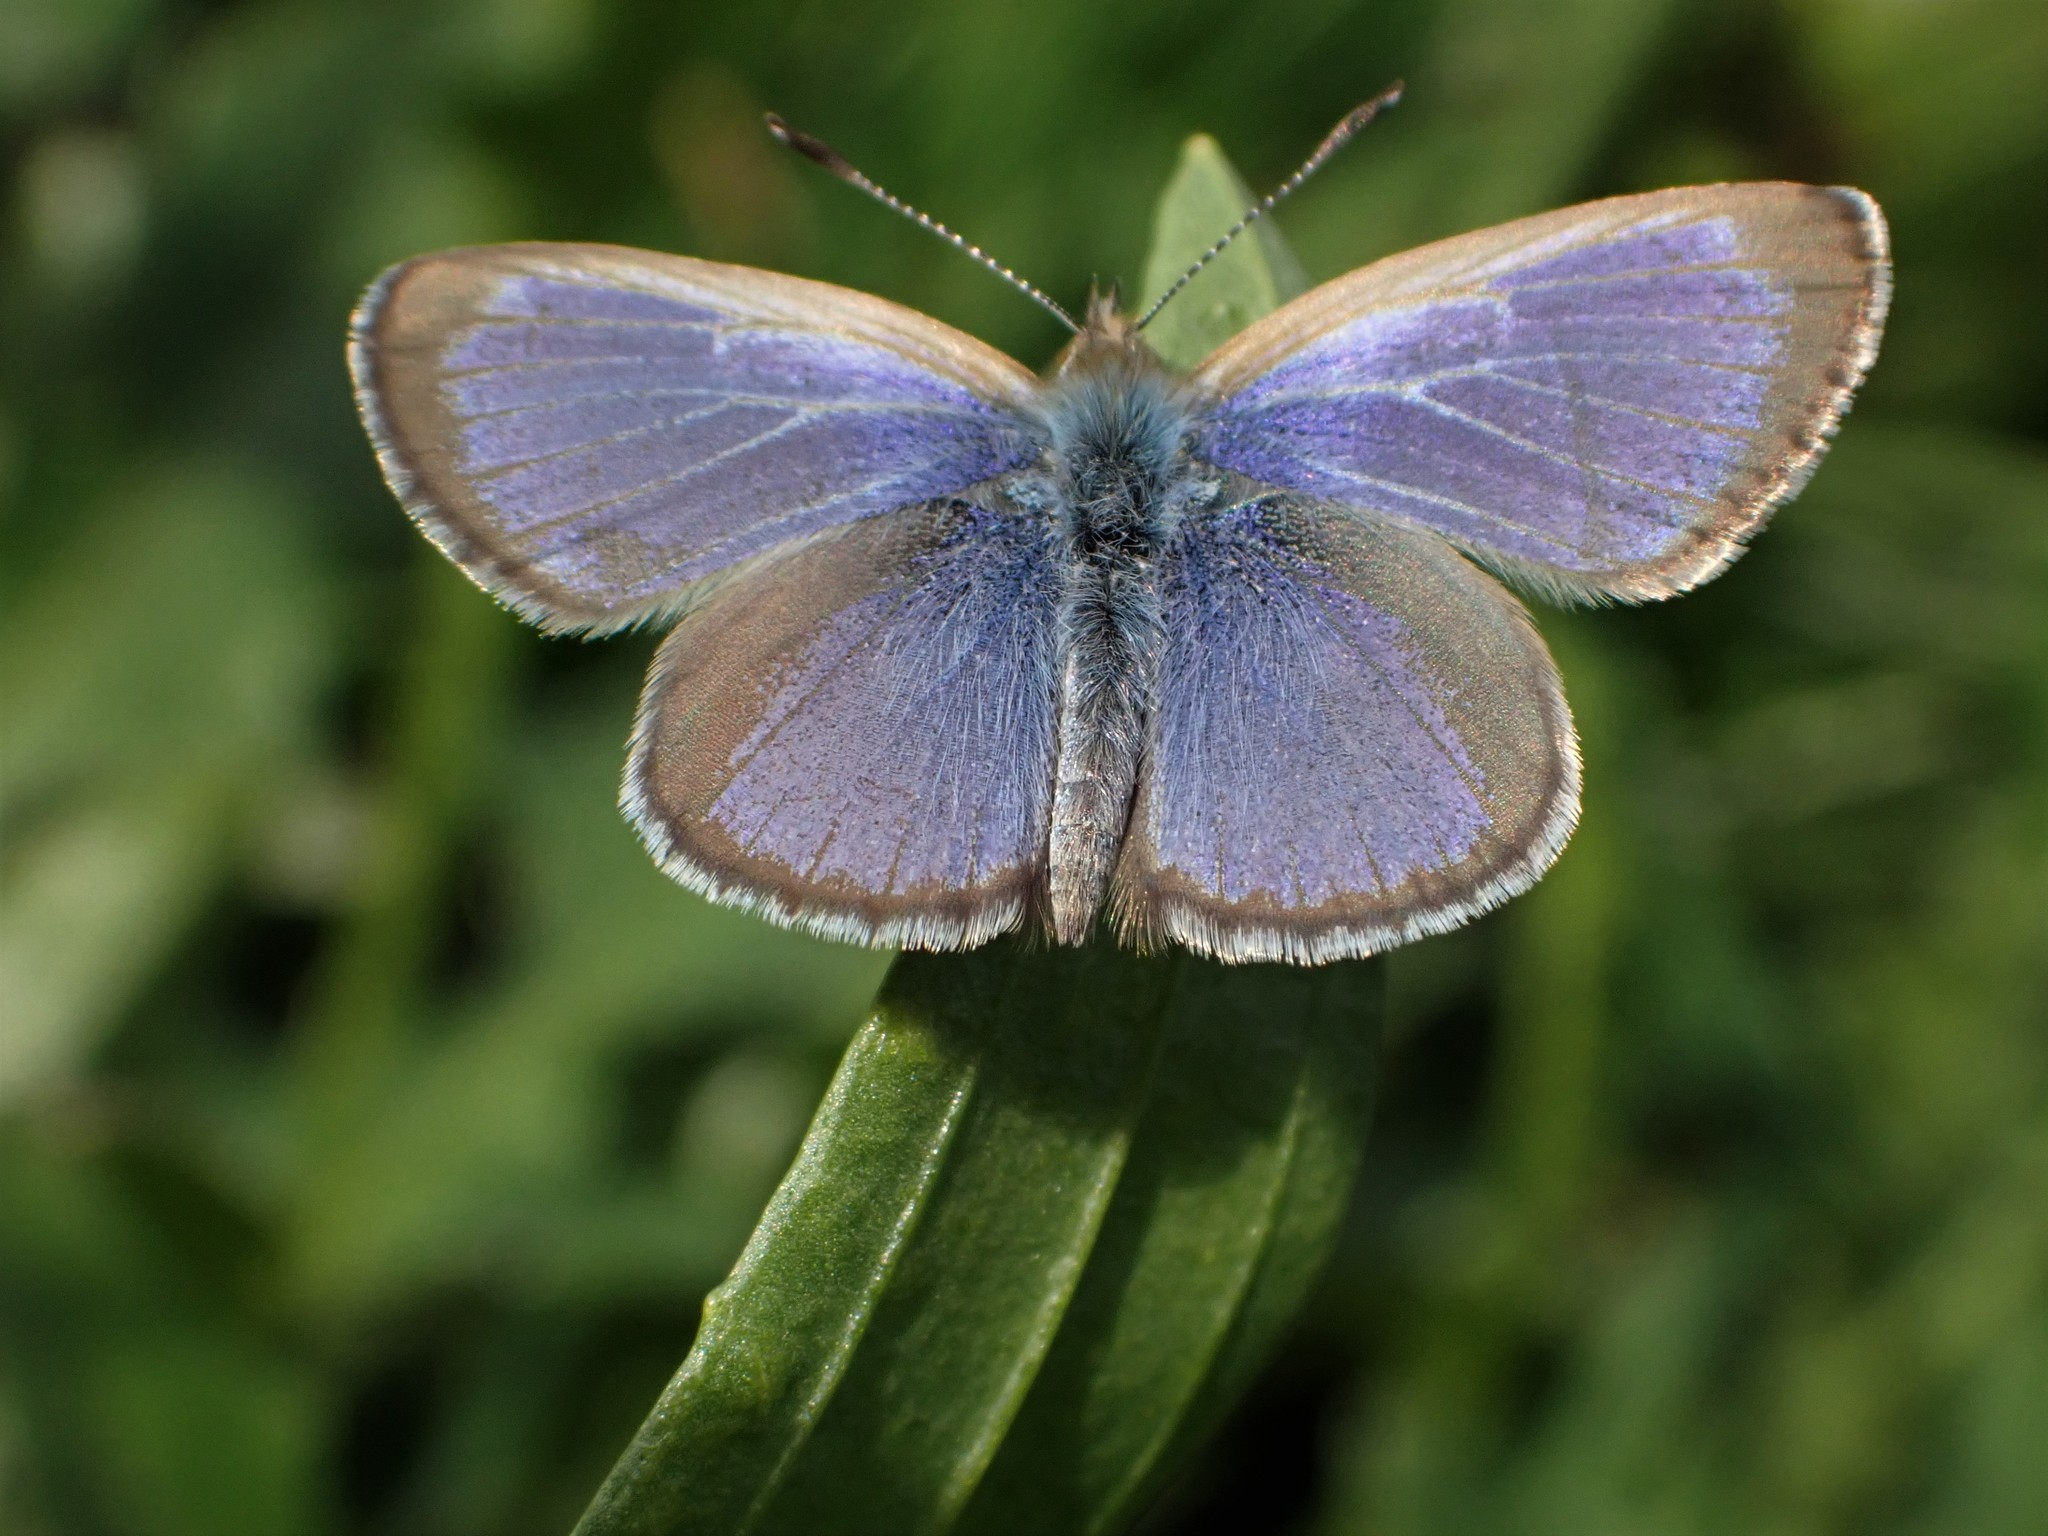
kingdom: Animalia
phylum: Arthropoda
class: Insecta
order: Lepidoptera
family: Lycaenidae
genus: Zizina
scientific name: Zizina labradus
